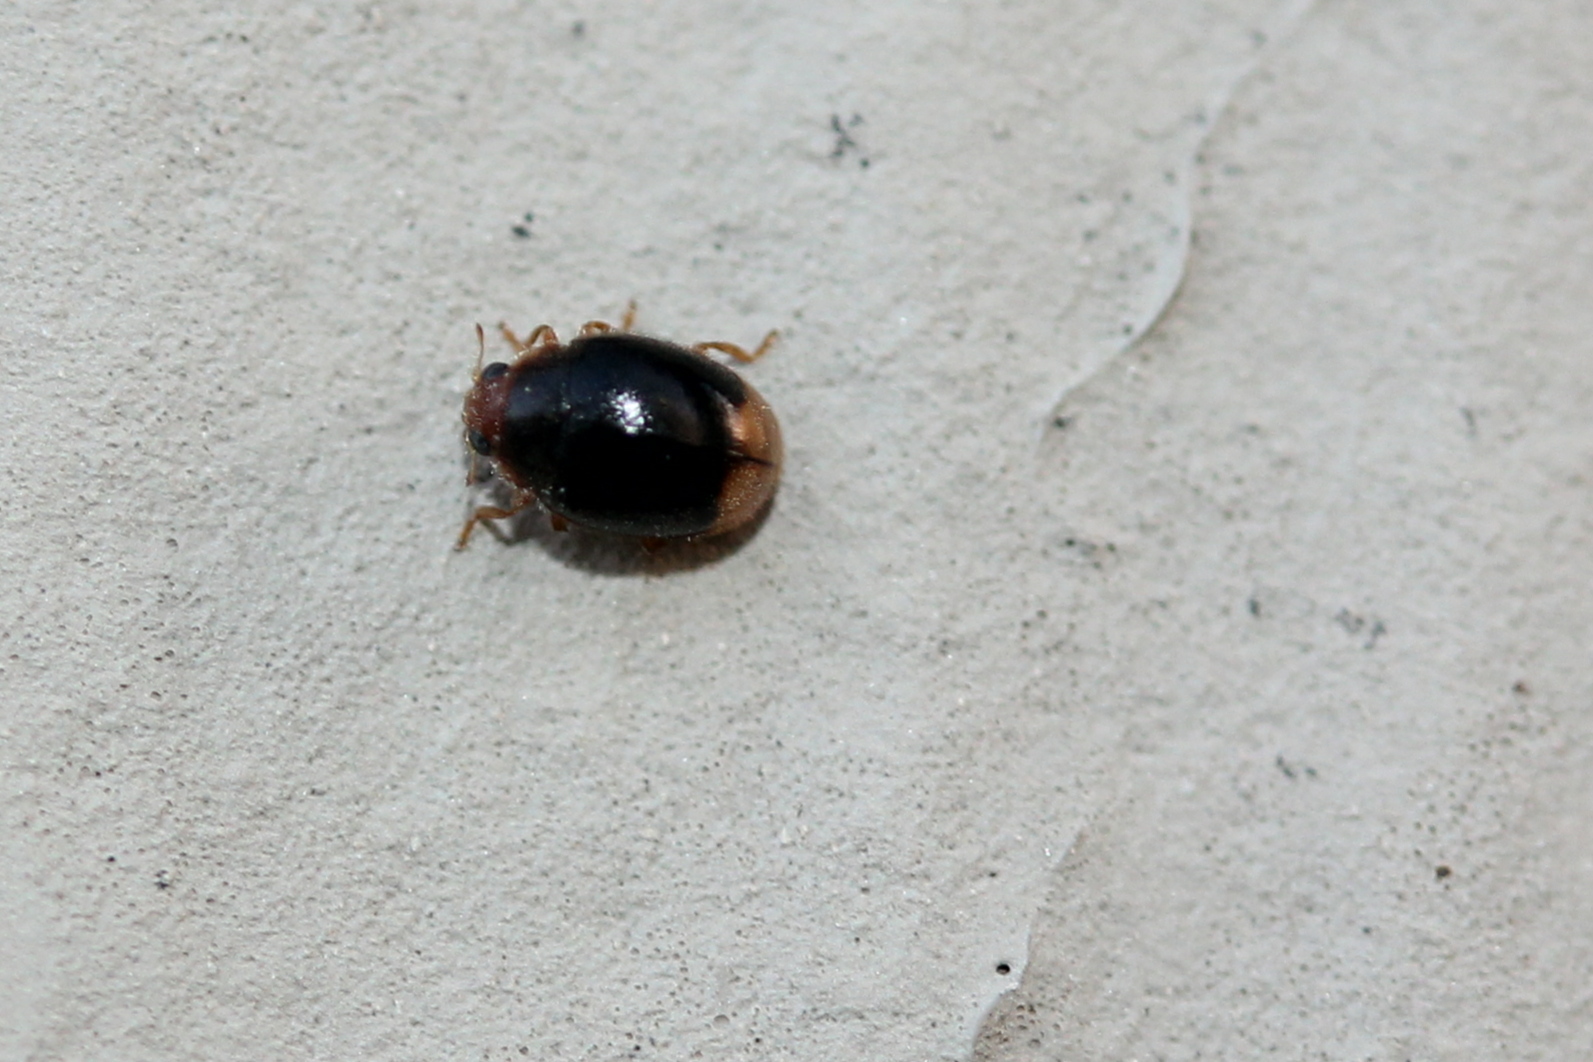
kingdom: Animalia
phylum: Arthropoda
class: Insecta
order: Coleoptera
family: Coccinellidae
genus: Diomus
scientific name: Diomus terminatus
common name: Firefly duskyling
